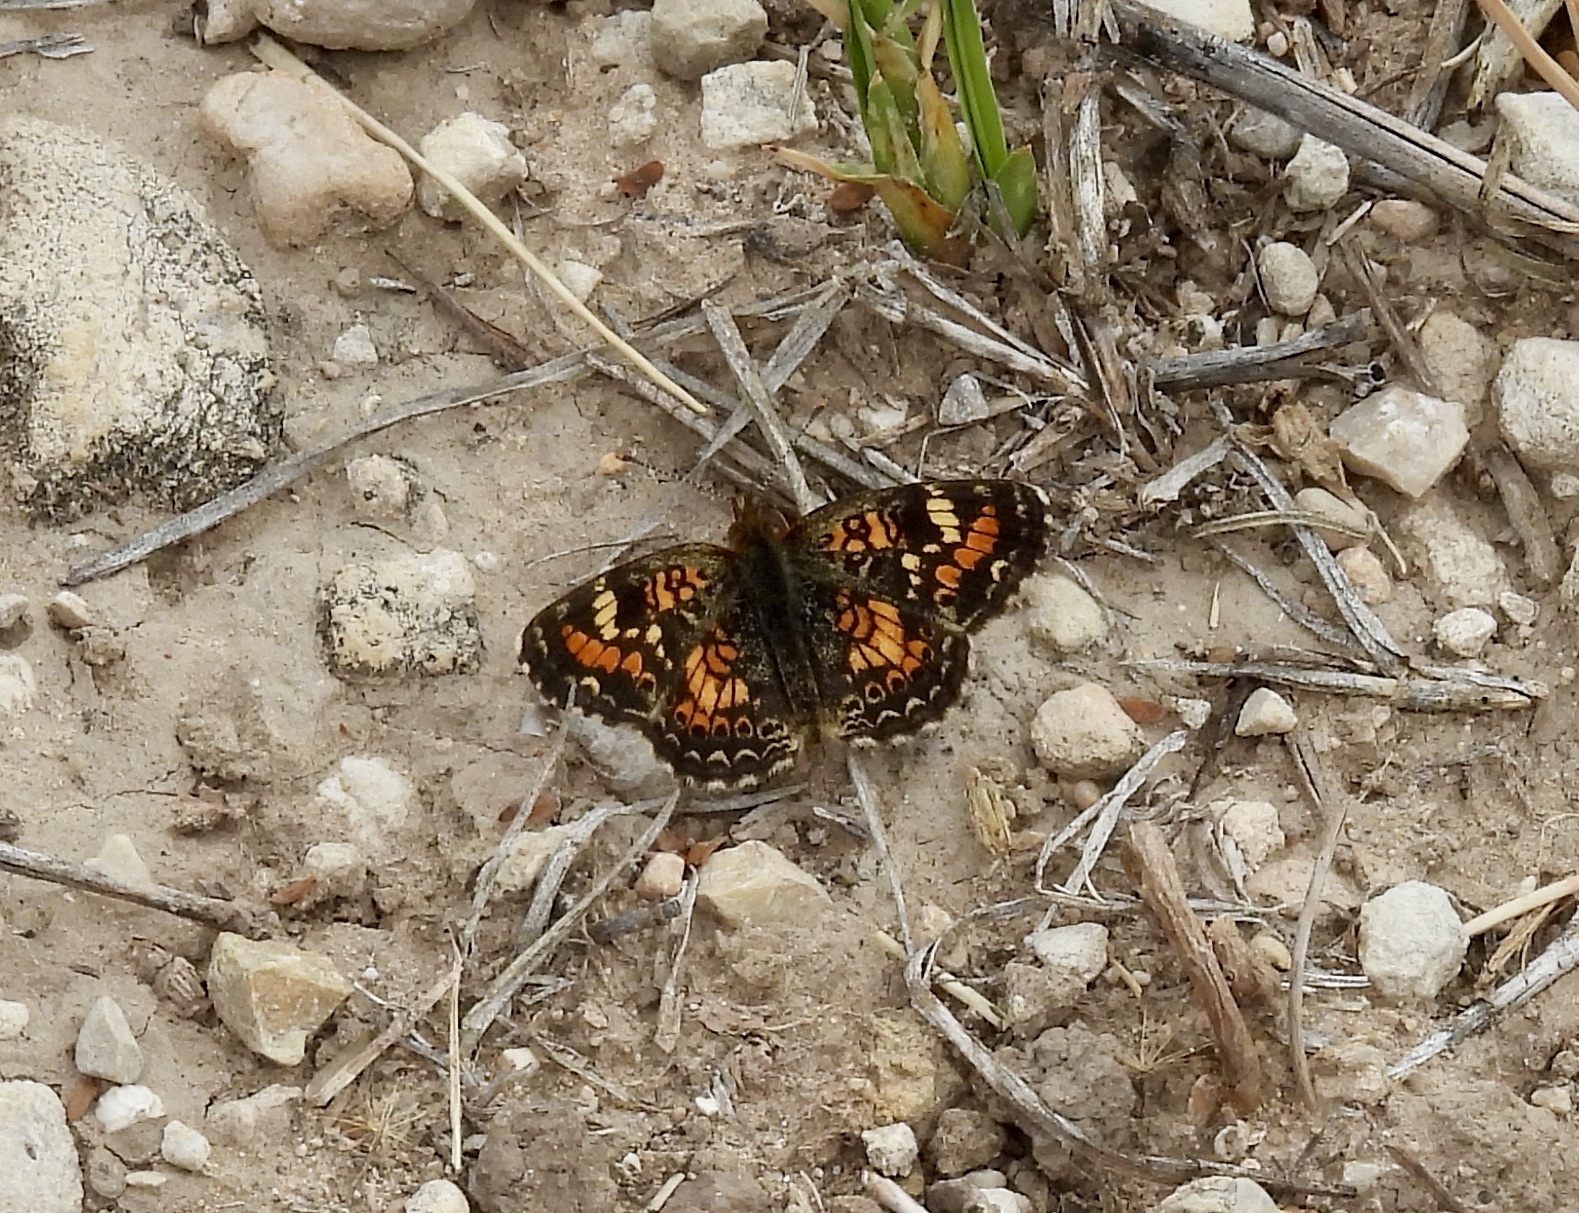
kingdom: Animalia
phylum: Arthropoda
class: Insecta
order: Lepidoptera
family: Nymphalidae
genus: Phyciodes
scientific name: Phyciodes
